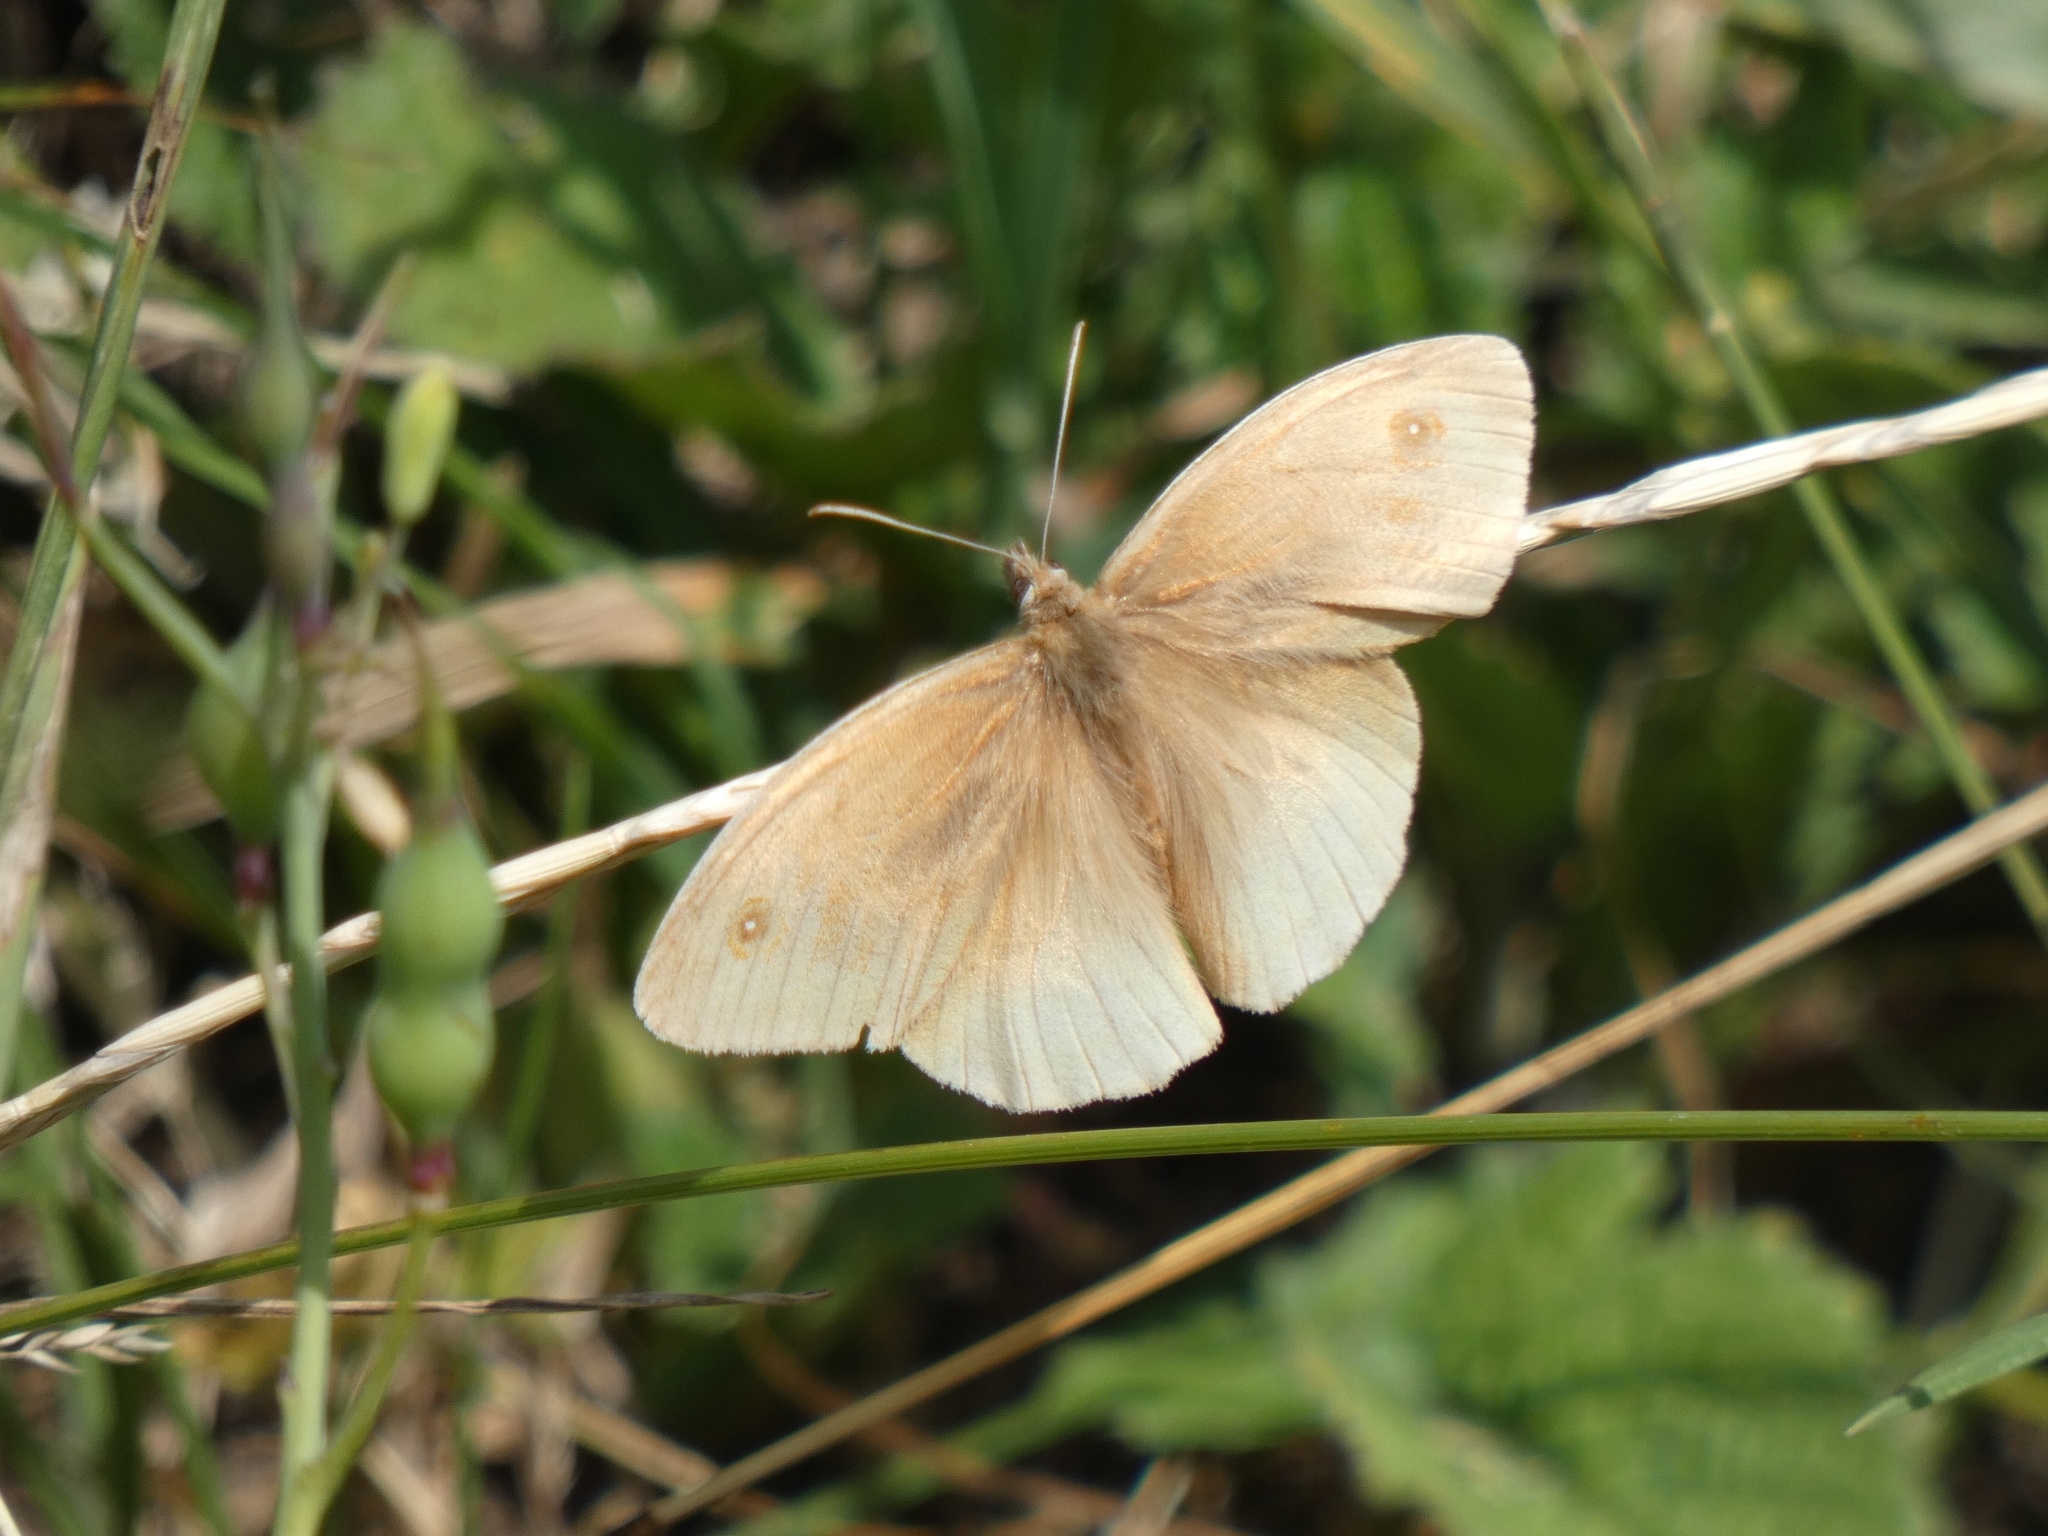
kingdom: Animalia
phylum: Arthropoda
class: Insecta
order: Lepidoptera
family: Nymphalidae
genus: Maniola
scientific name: Maniola jurtina
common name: Meadow brown
